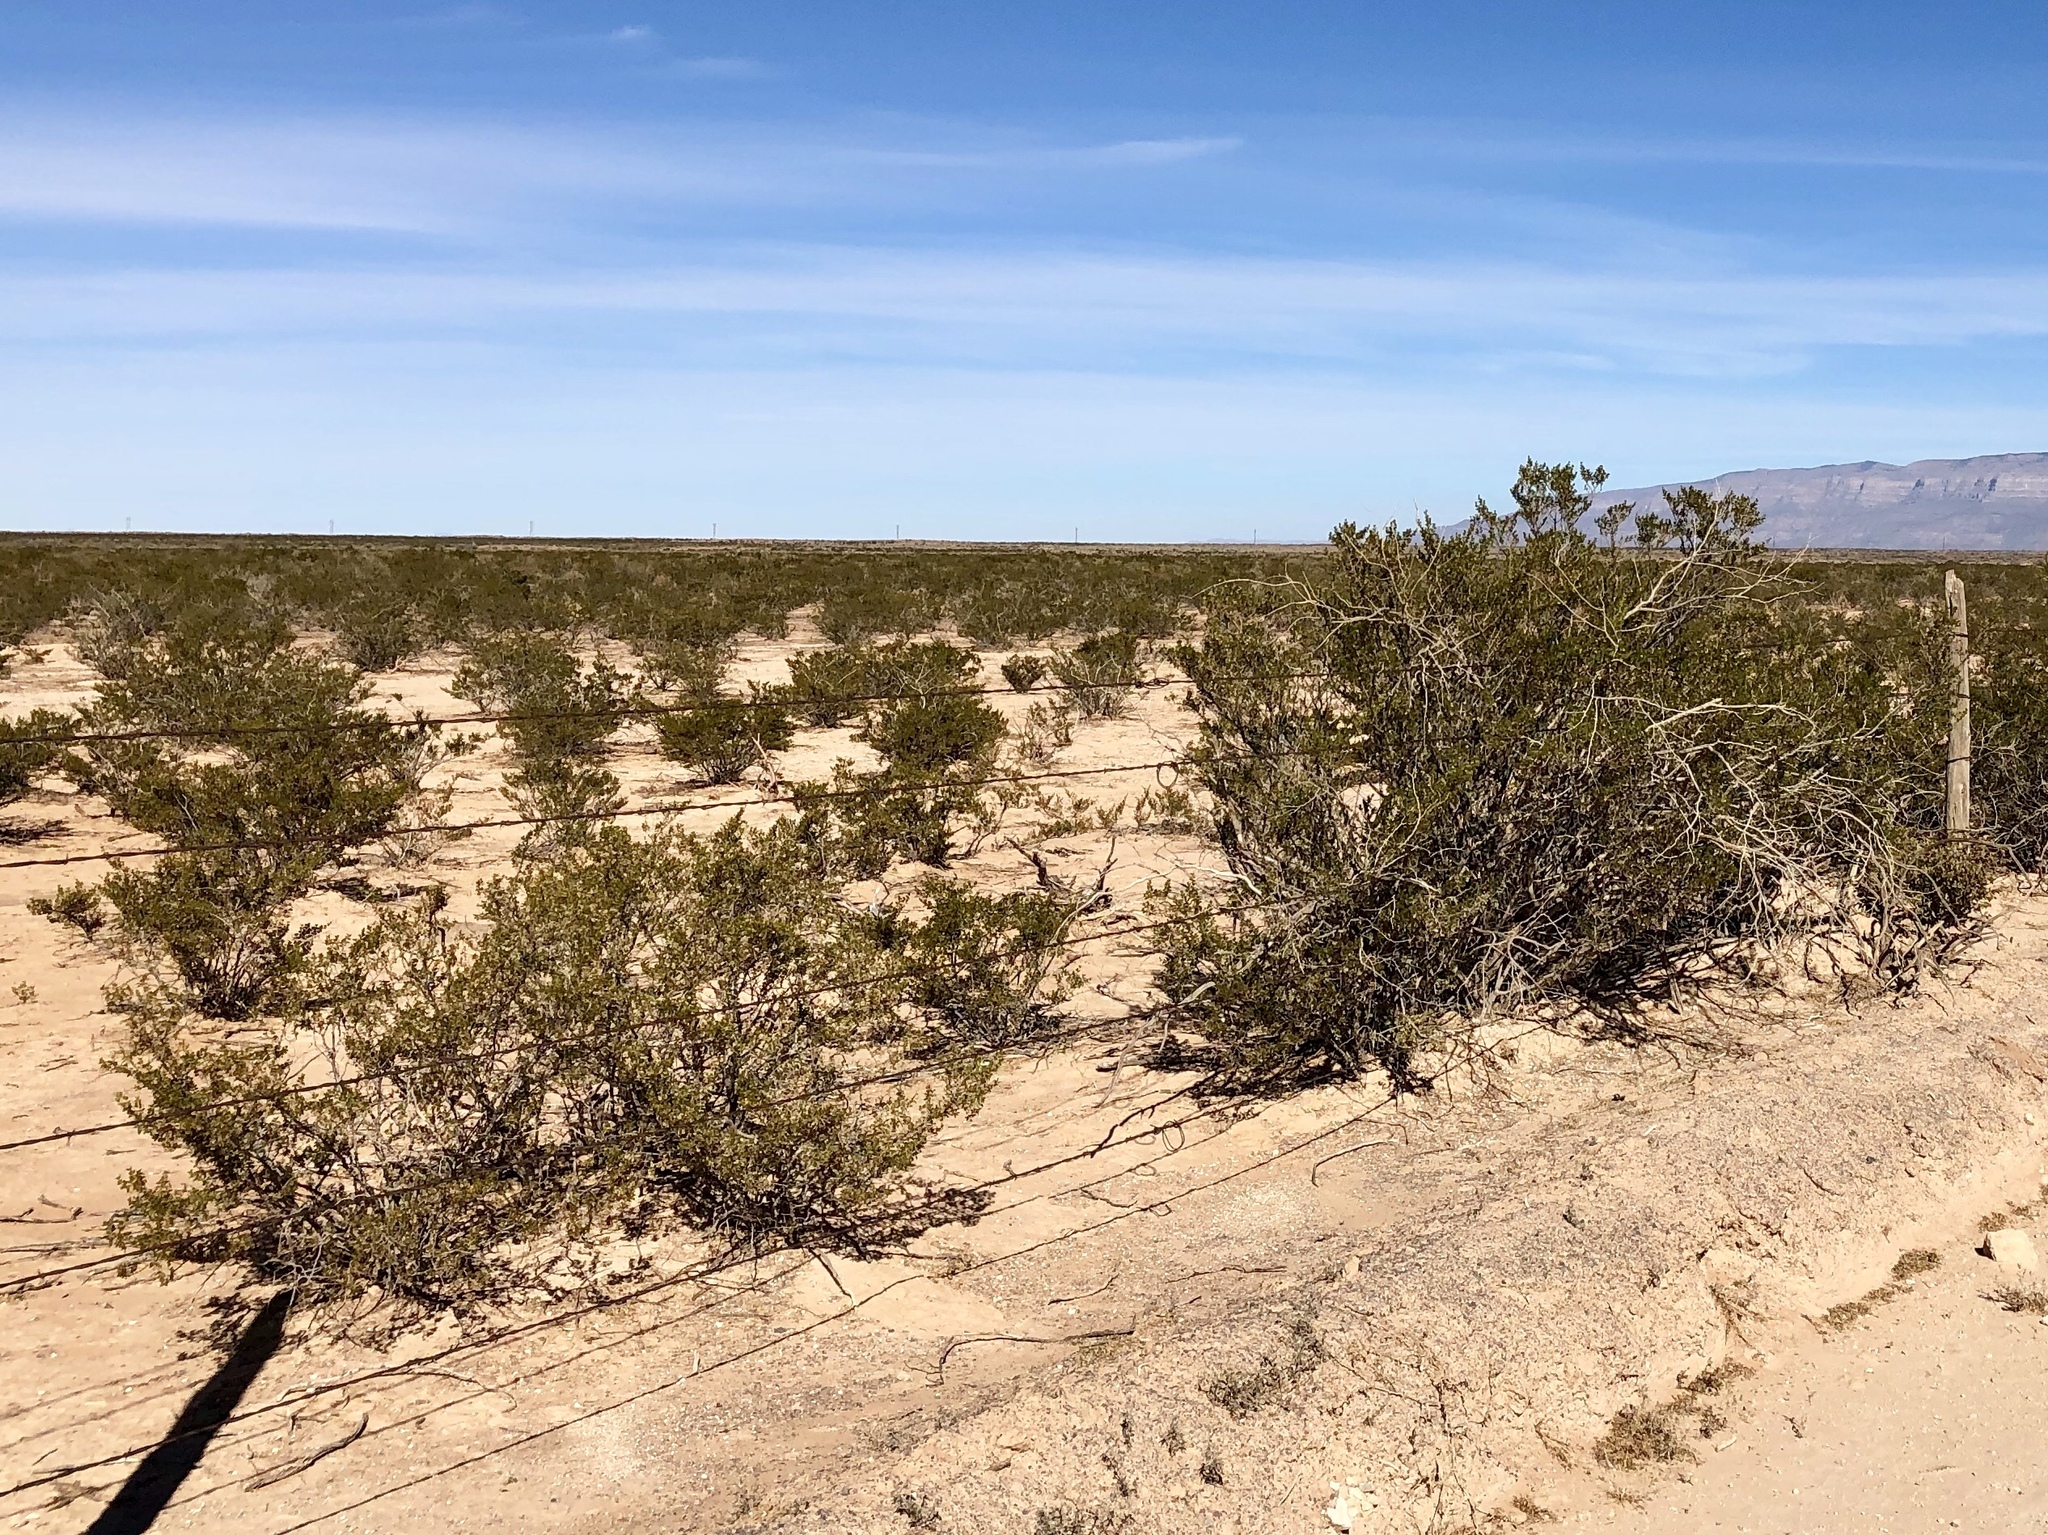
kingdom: Plantae
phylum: Tracheophyta
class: Magnoliopsida
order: Zygophyllales
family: Zygophyllaceae
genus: Larrea
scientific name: Larrea tridentata
